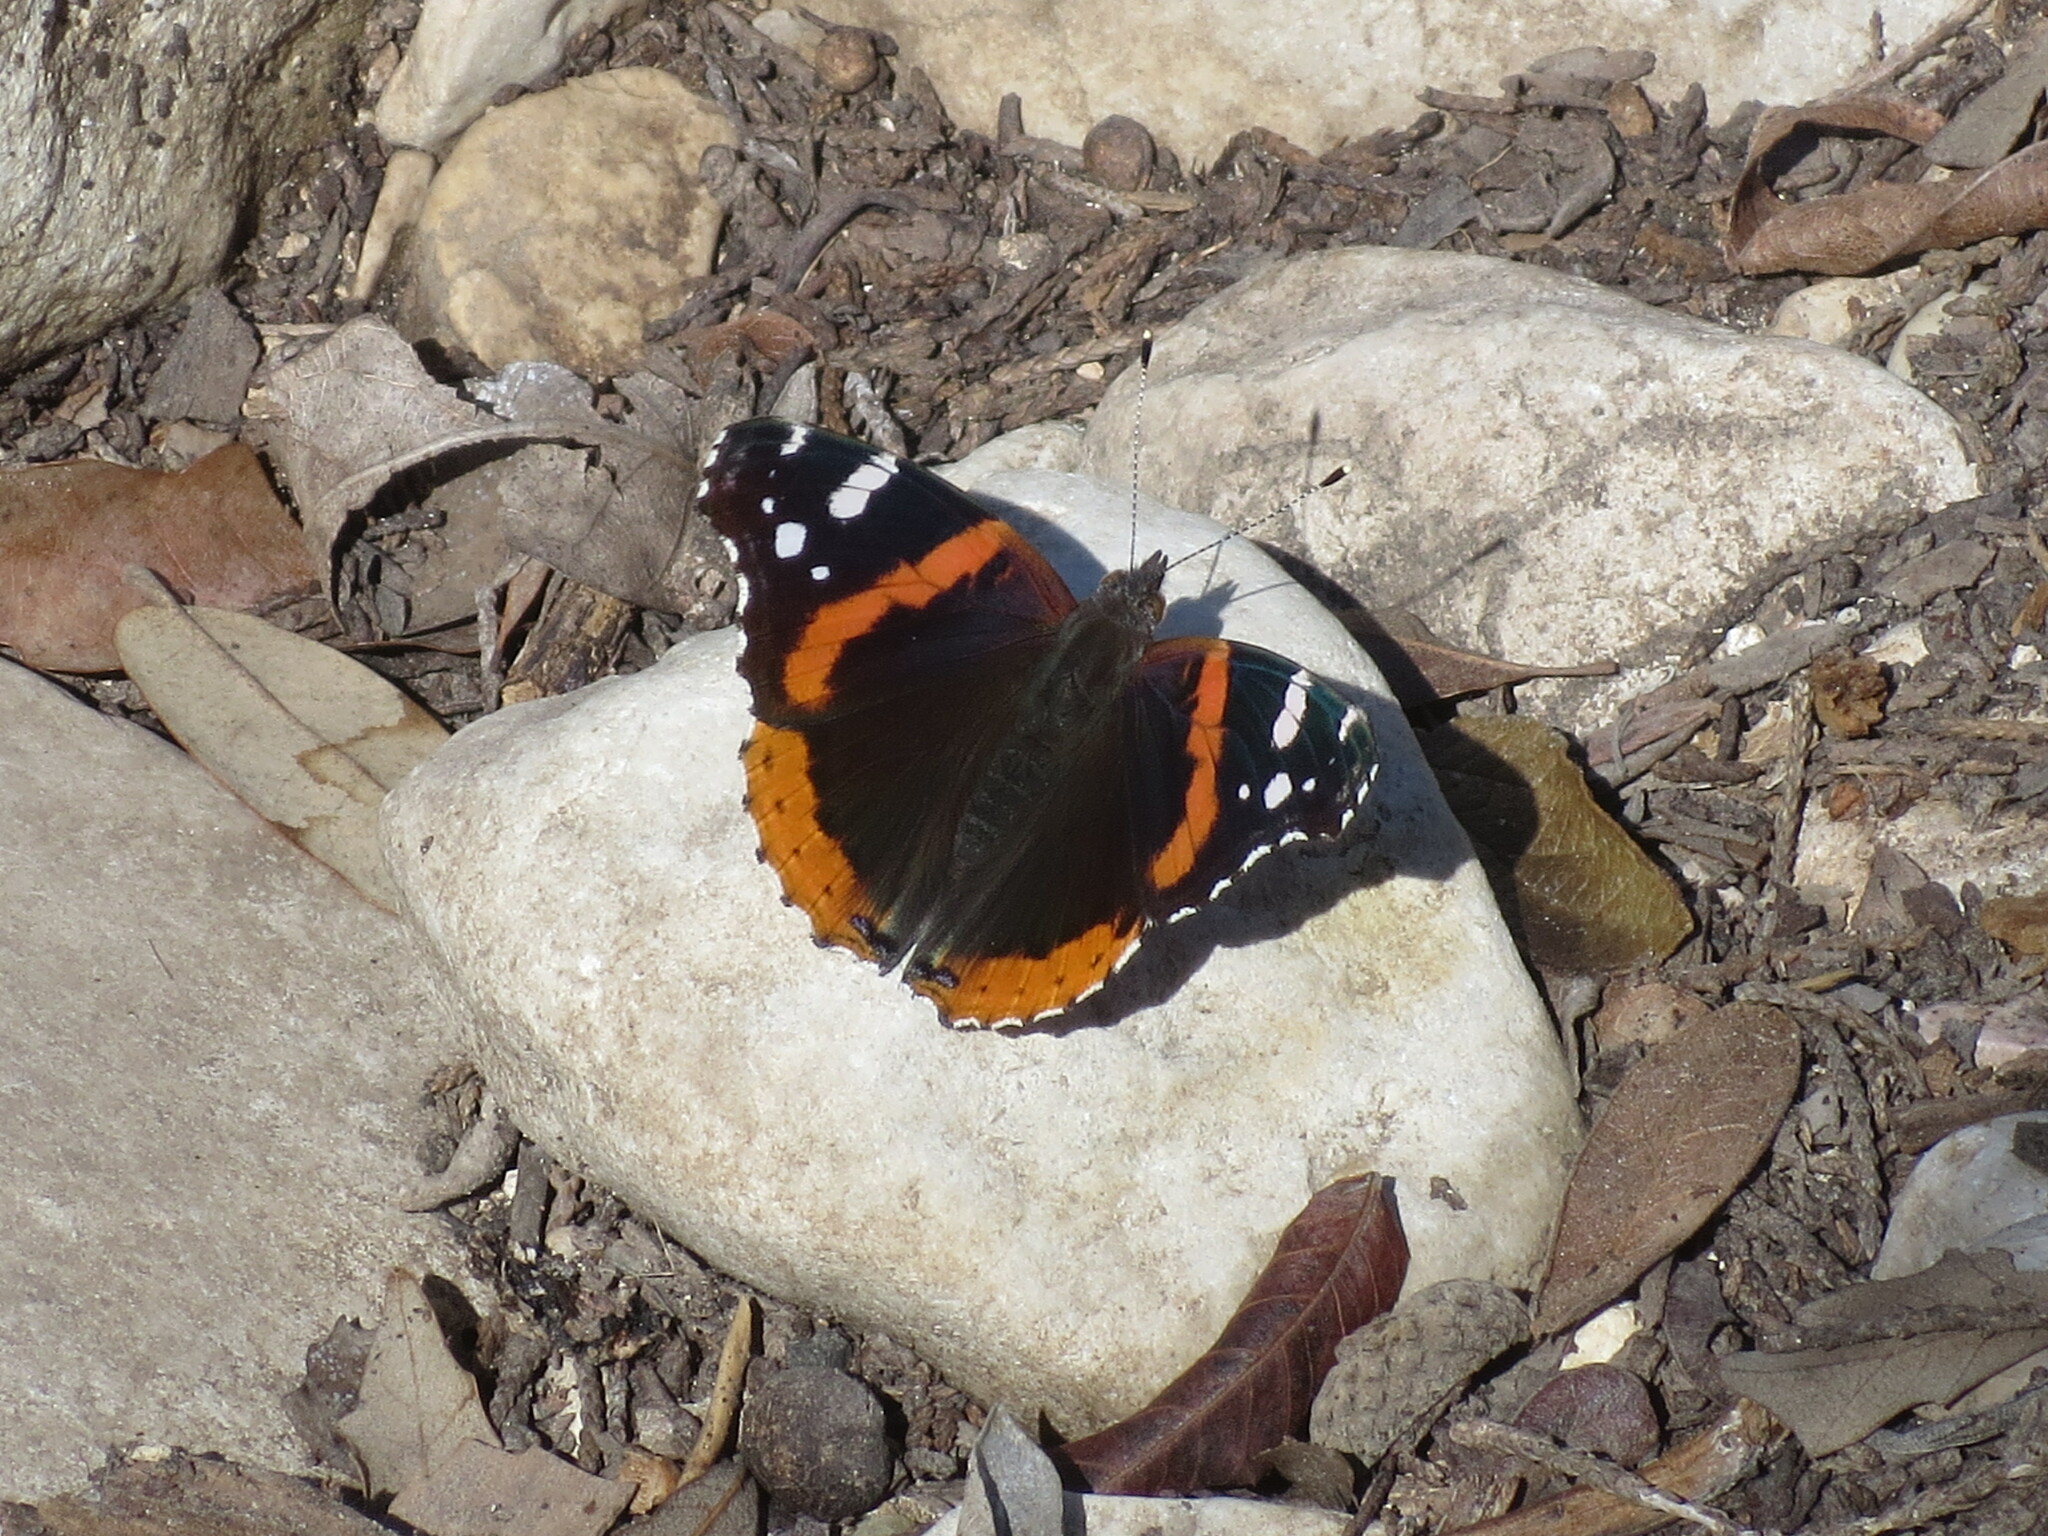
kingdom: Animalia
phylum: Arthropoda
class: Insecta
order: Lepidoptera
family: Nymphalidae
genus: Vanessa
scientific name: Vanessa atalanta
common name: Red admiral
